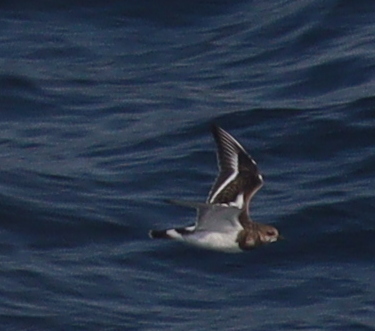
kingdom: Animalia
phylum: Chordata
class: Aves
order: Charadriiformes
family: Scolopacidae
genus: Arenaria
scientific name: Arenaria interpres
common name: Ruddy turnstone
